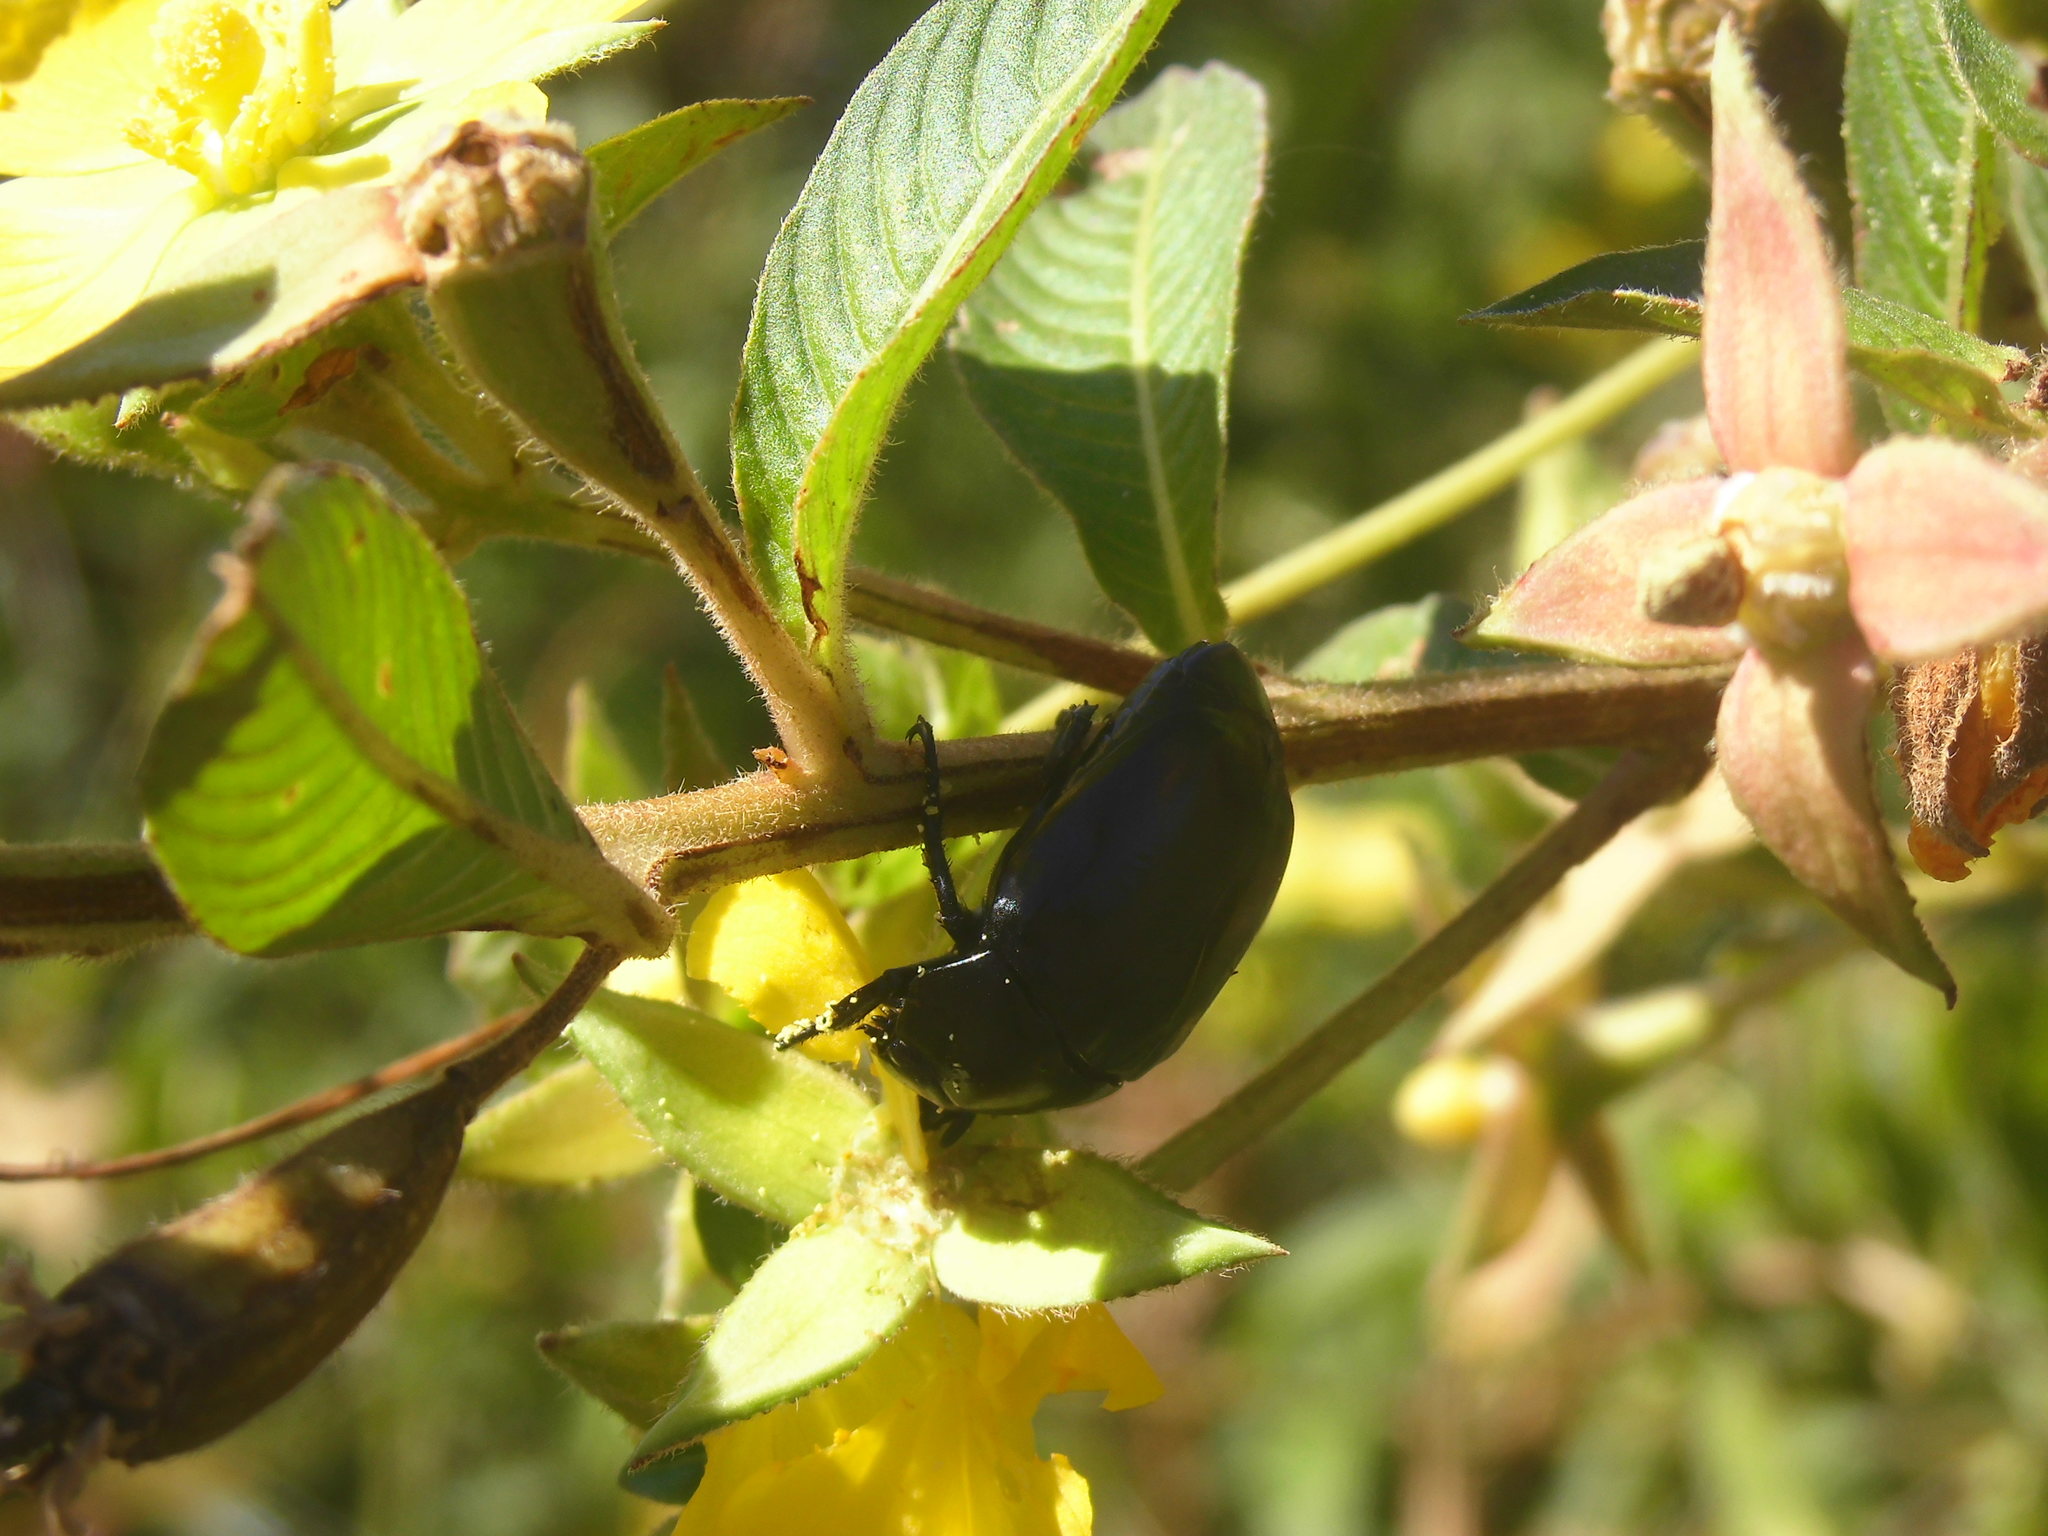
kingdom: Animalia
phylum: Arthropoda
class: Insecta
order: Coleoptera
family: Scarabaeidae
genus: Macraspis
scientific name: Macraspis morio
